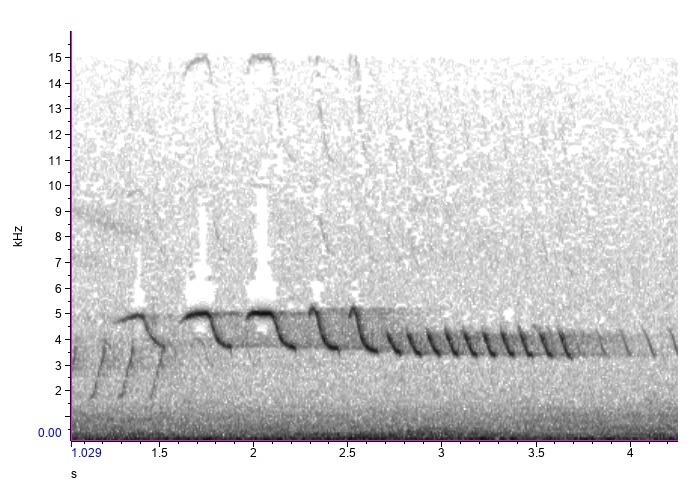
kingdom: Animalia
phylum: Chordata
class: Aves
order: Passeriformes
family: Passerellidae
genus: Spizella
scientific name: Spizella pusilla
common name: Field sparrow
